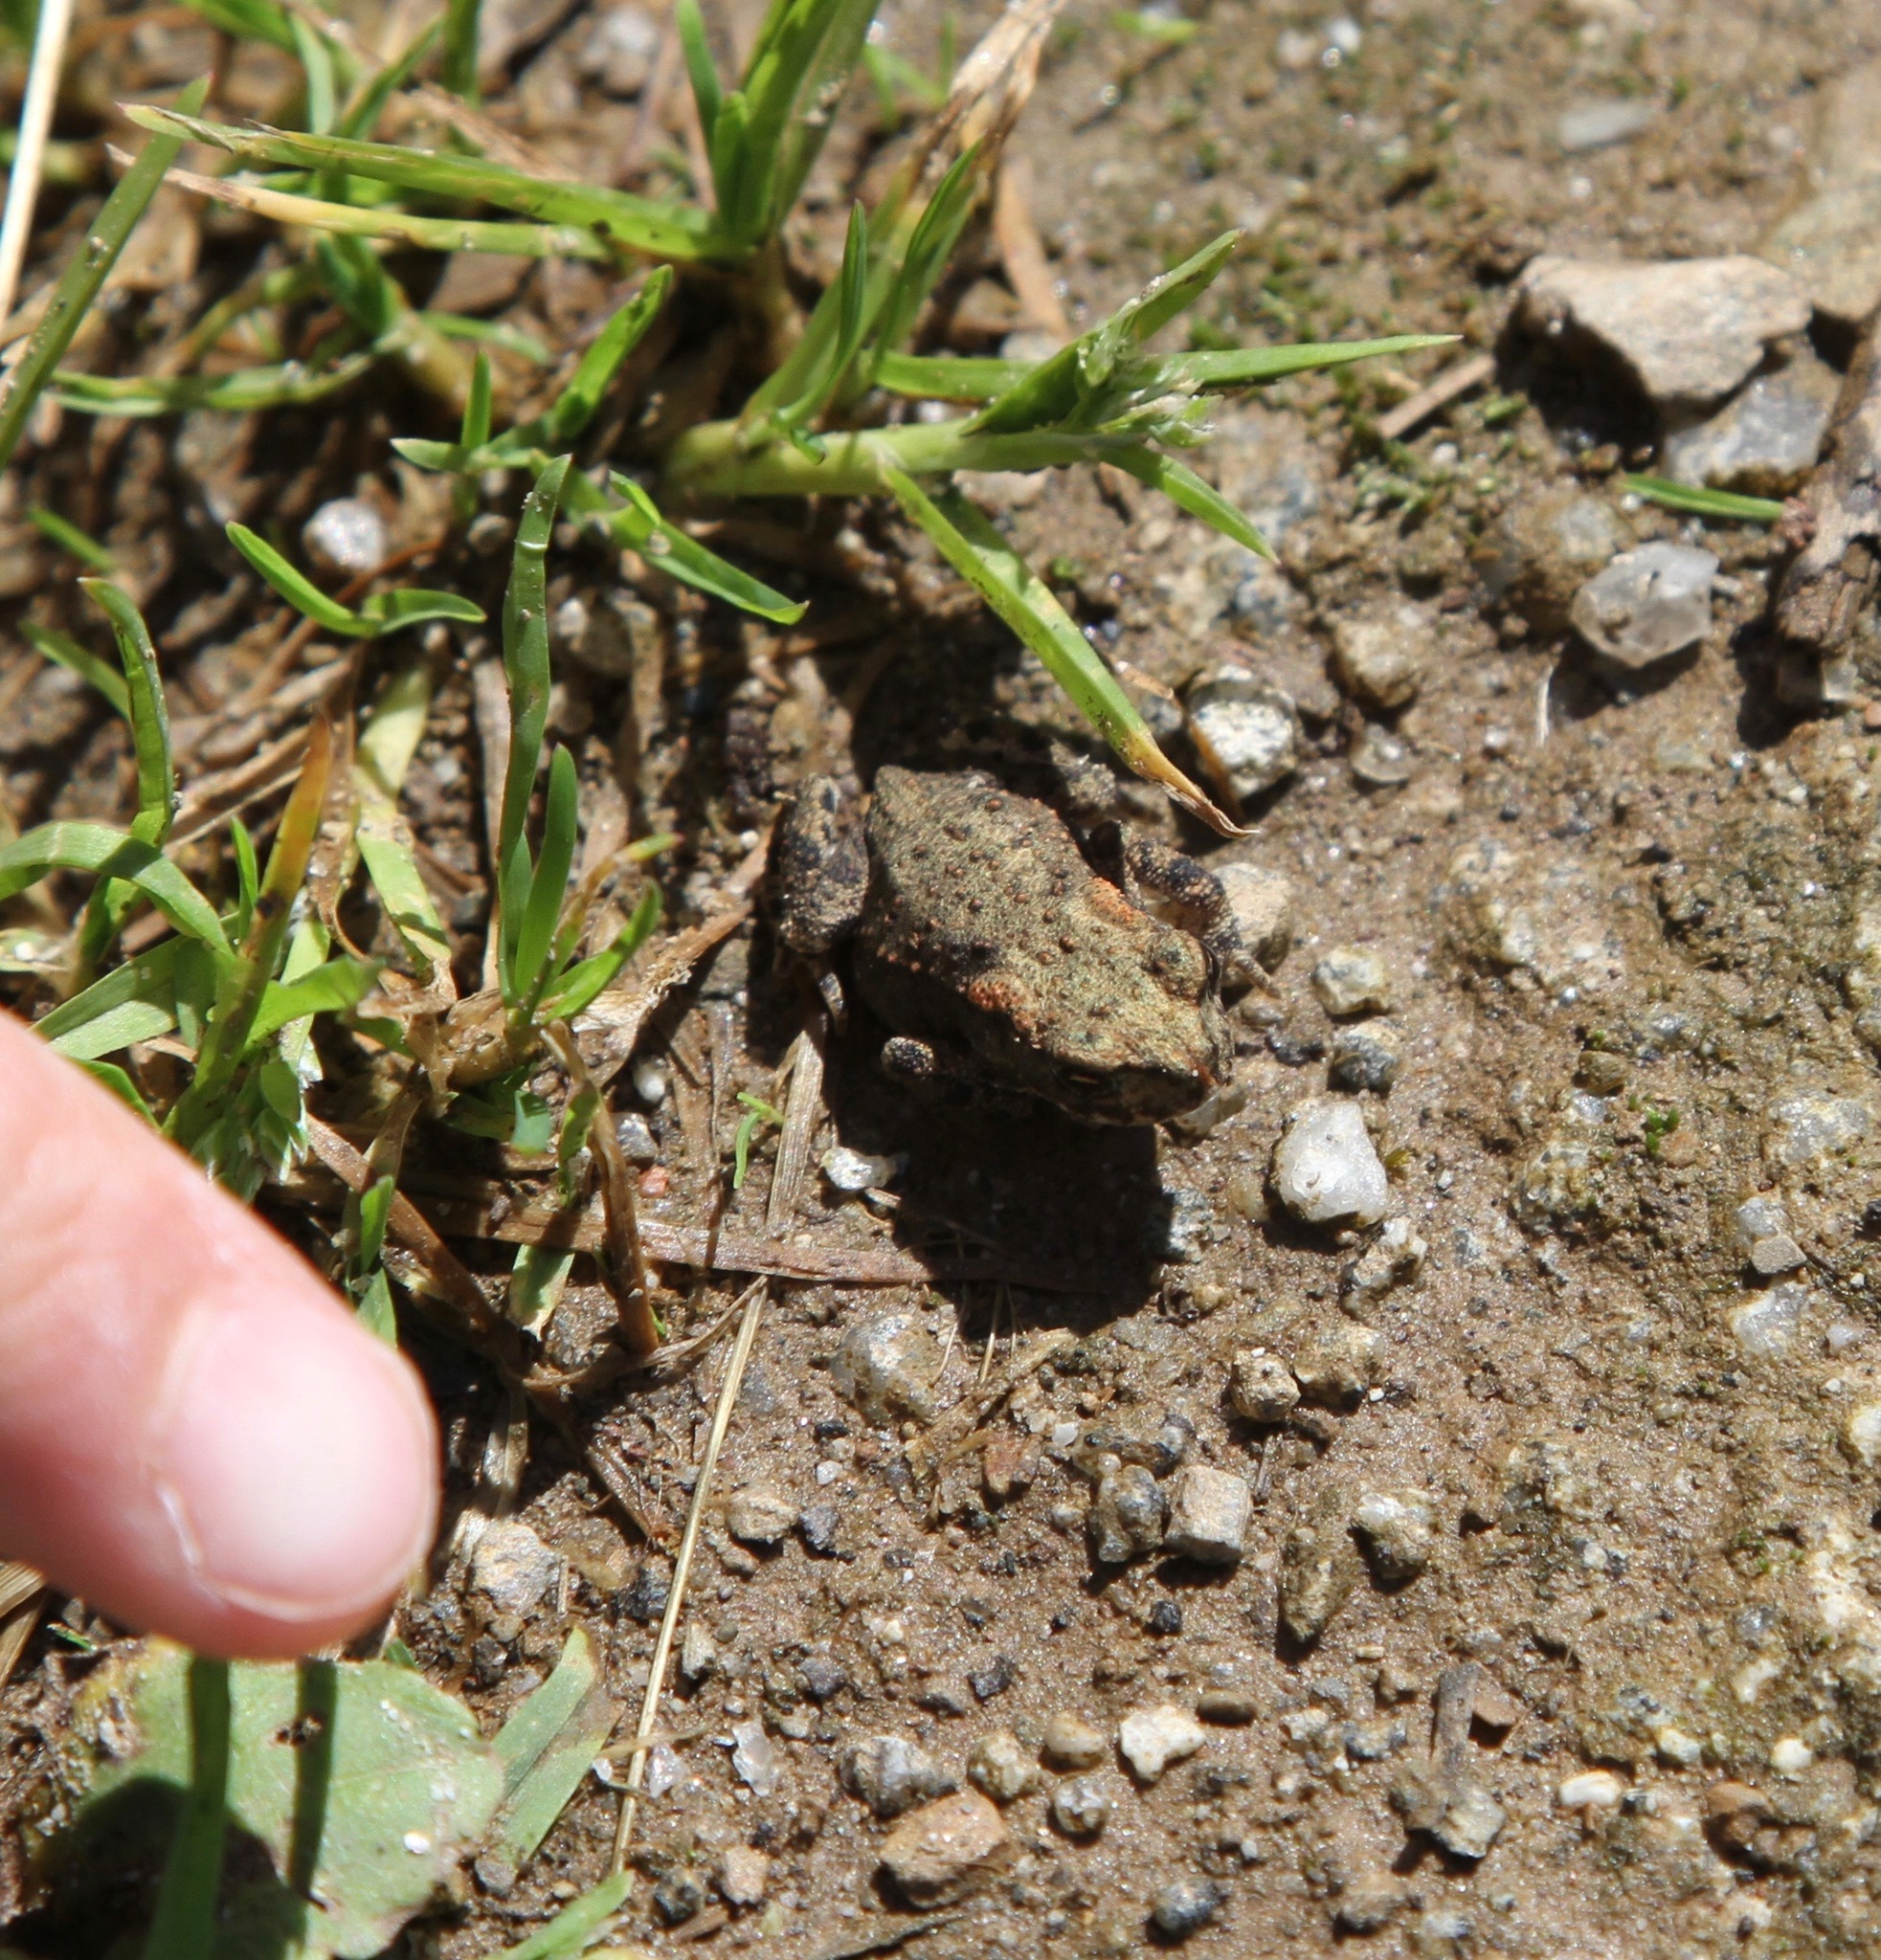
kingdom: Animalia
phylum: Chordata
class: Amphibia
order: Anura
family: Bufonidae
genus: Bufo
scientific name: Bufo bufo
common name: Common toad
